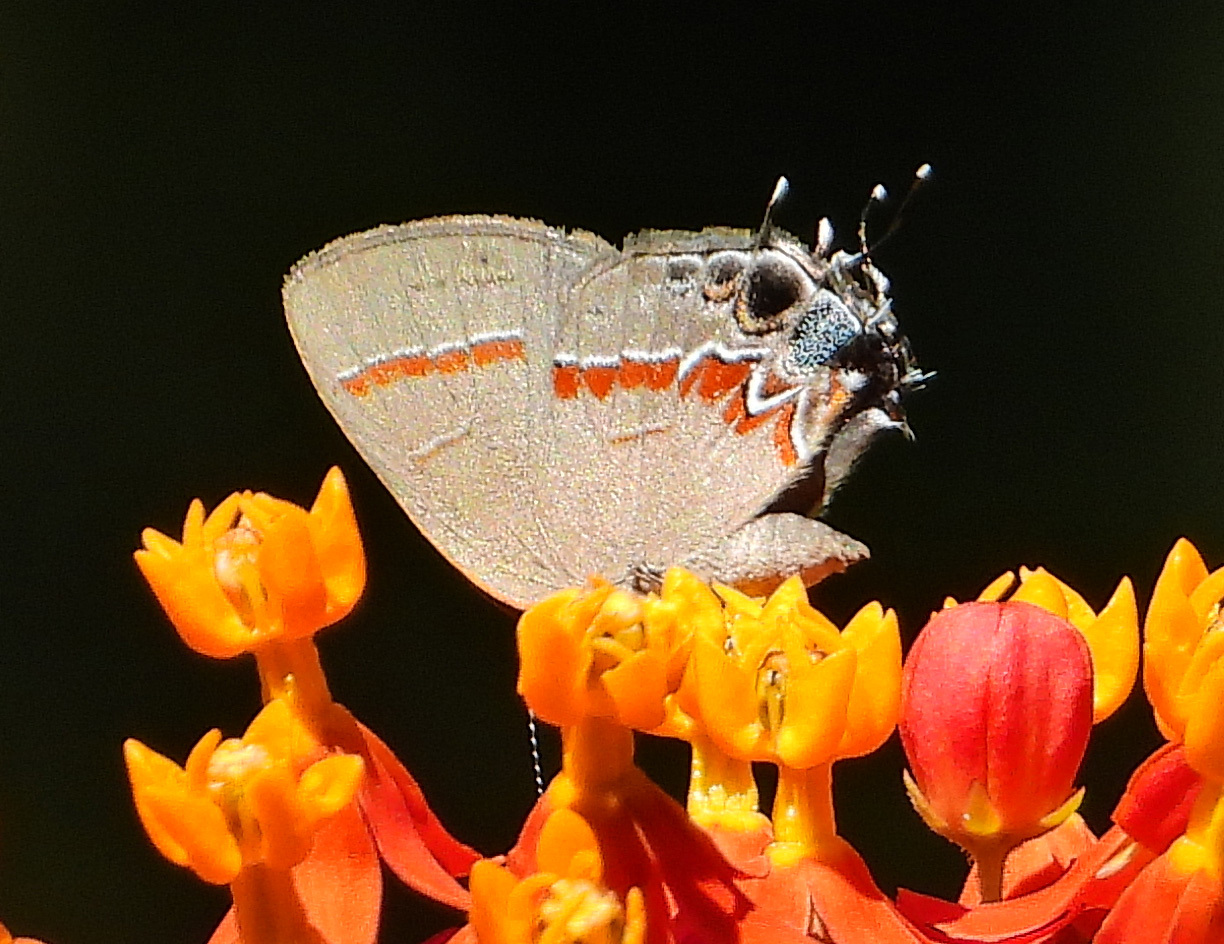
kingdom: Animalia
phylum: Arthropoda
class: Insecta
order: Lepidoptera
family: Lycaenidae
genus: Calycopis
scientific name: Calycopis cecrops
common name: Red-banded hairstreak
